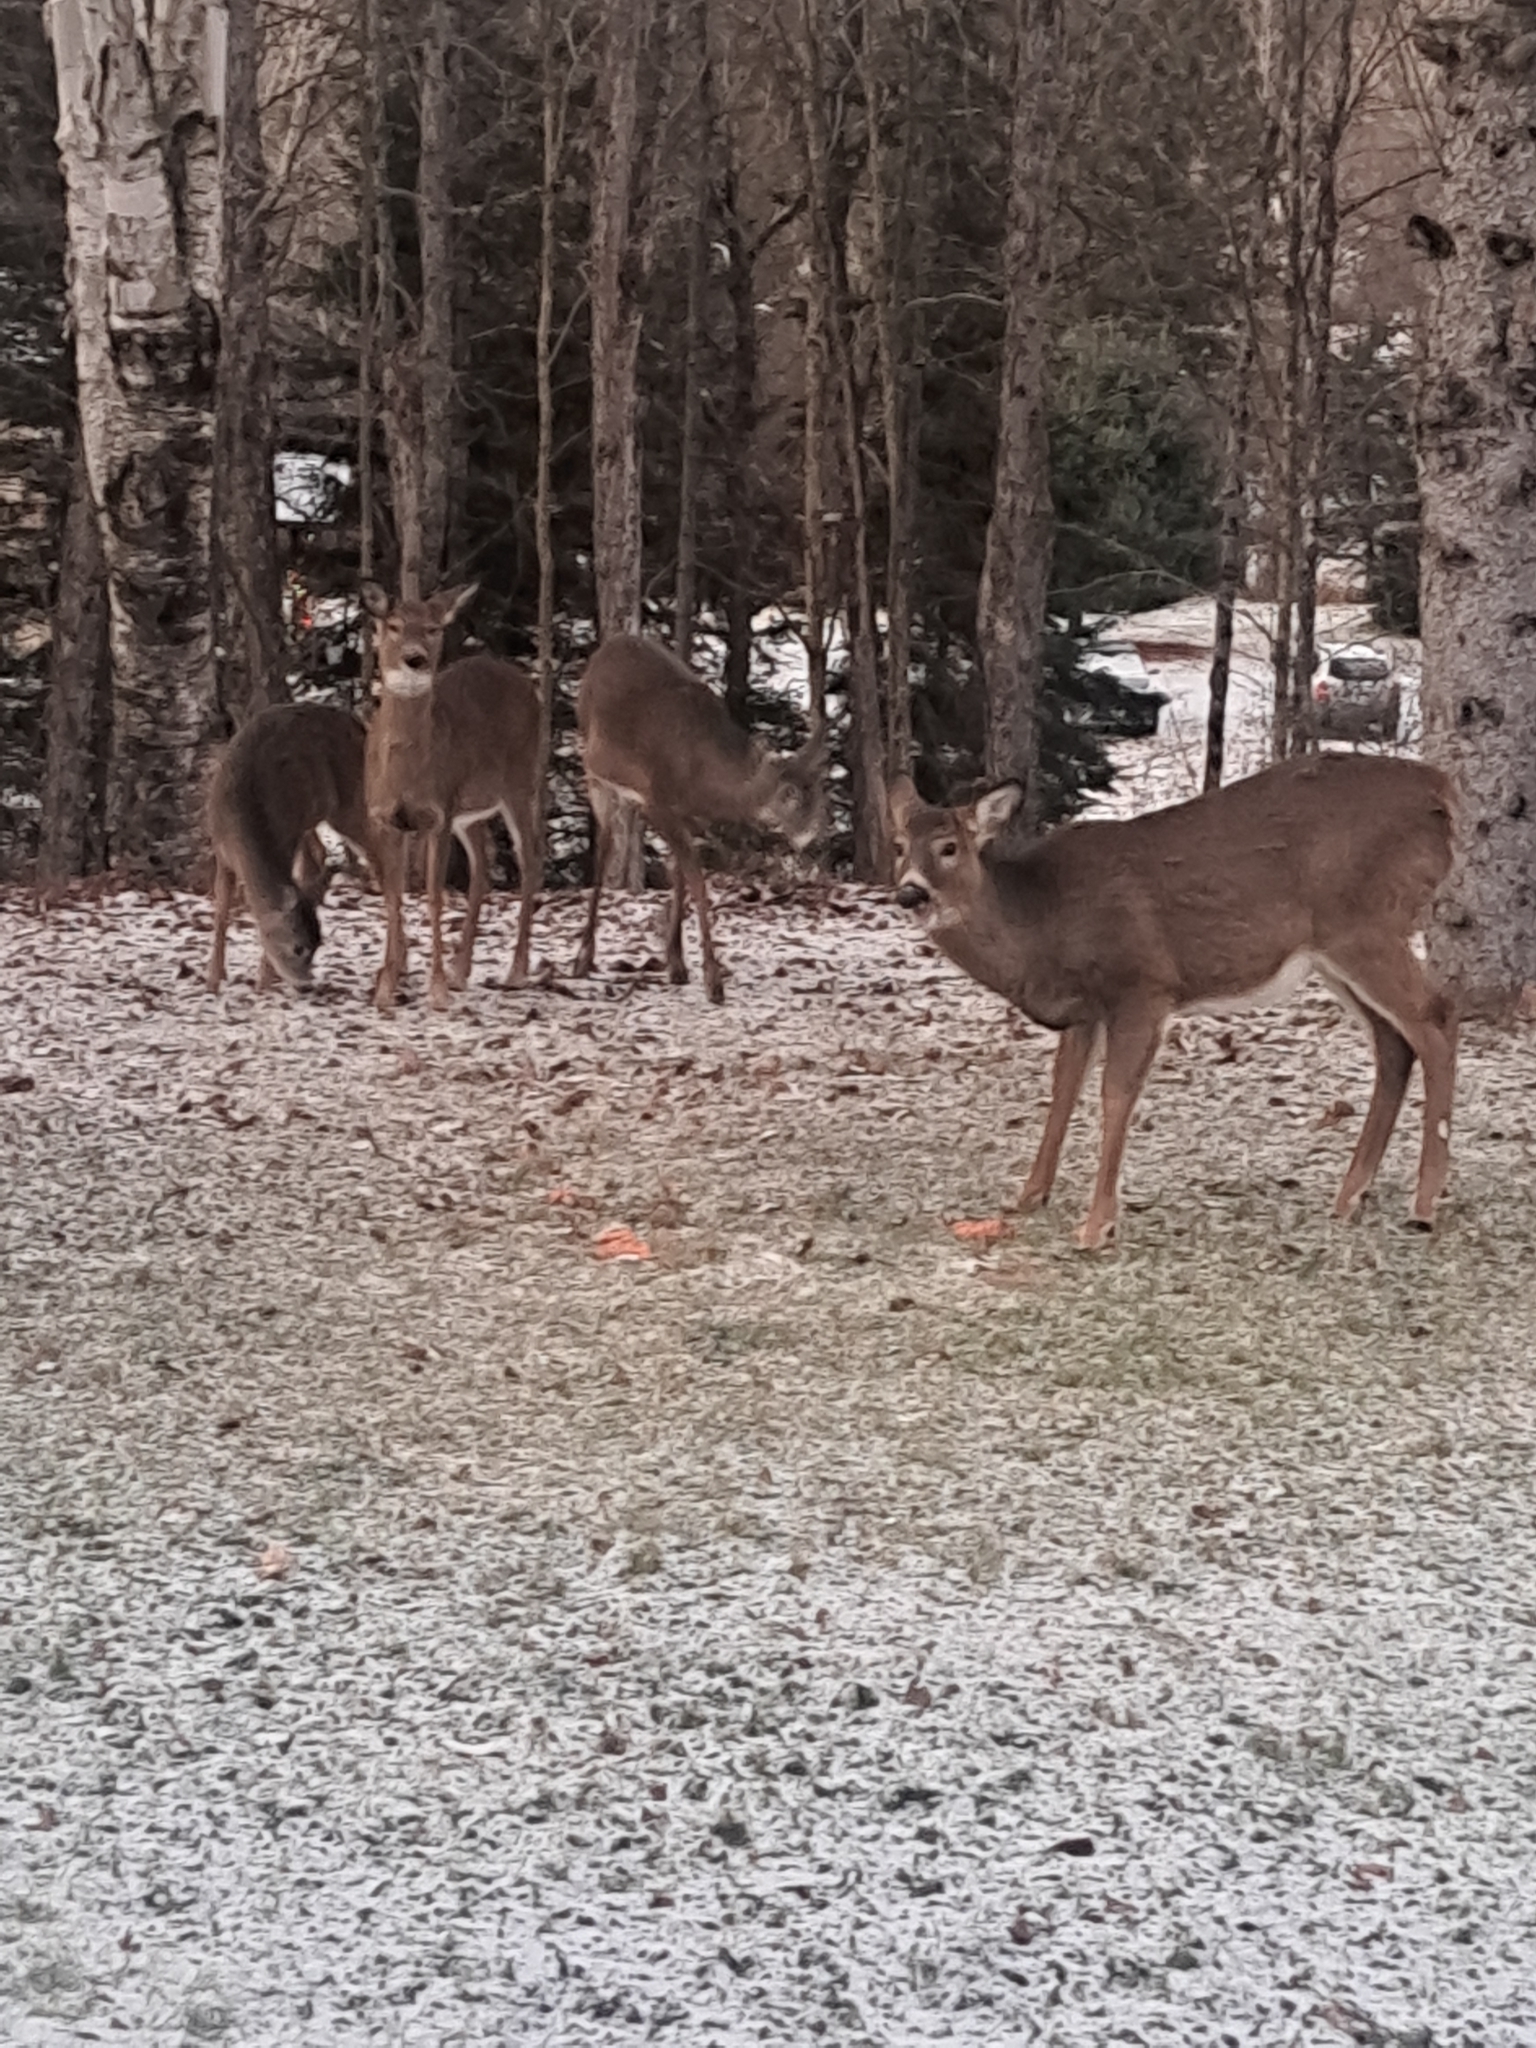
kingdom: Animalia
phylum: Chordata
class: Mammalia
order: Artiodactyla
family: Cervidae
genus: Odocoileus
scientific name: Odocoileus virginianus
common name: White-tailed deer
